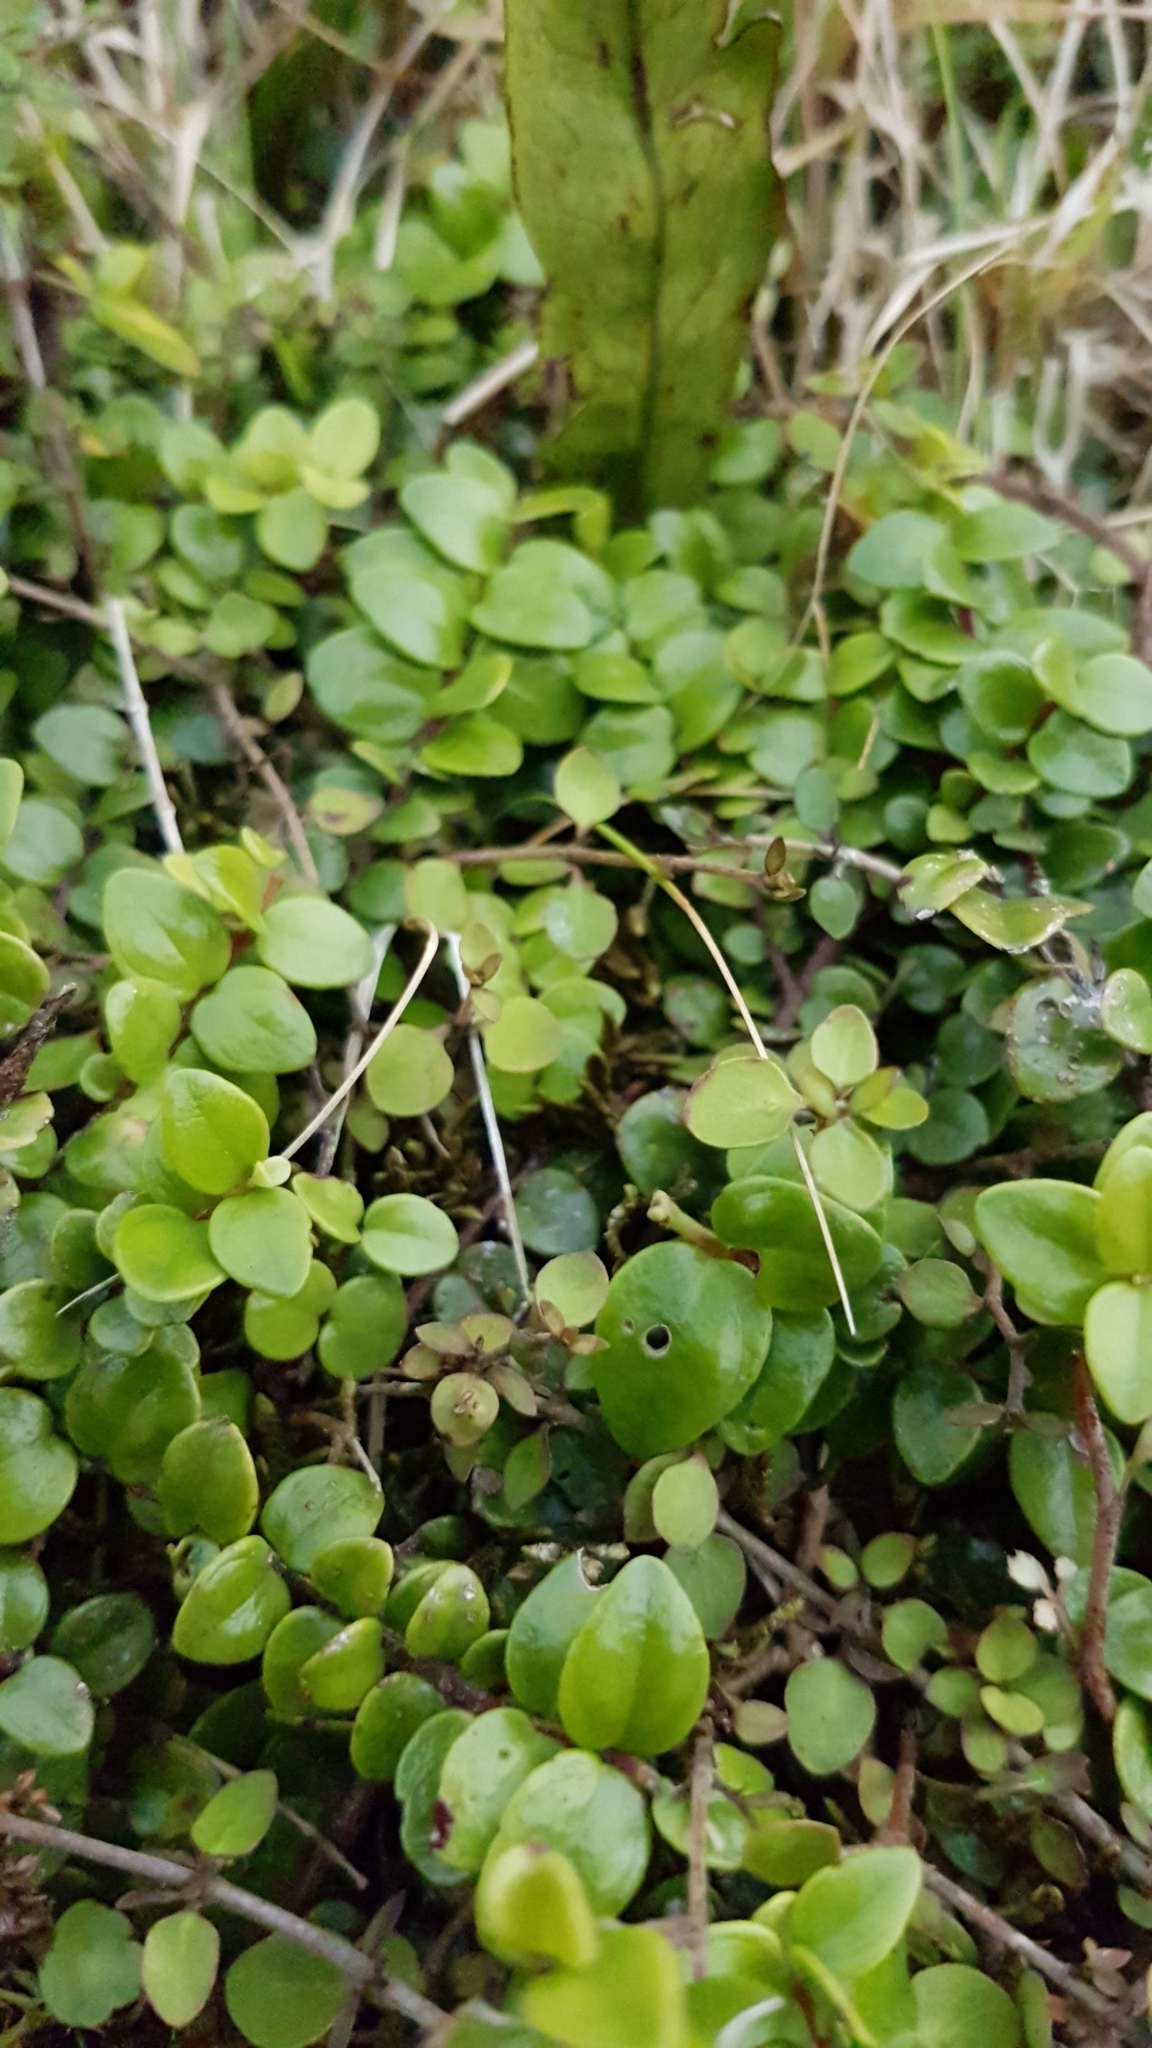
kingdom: Plantae
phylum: Tracheophyta
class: Magnoliopsida
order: Myrtales
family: Myrtaceae
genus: Metrosideros
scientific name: Metrosideros perforata
